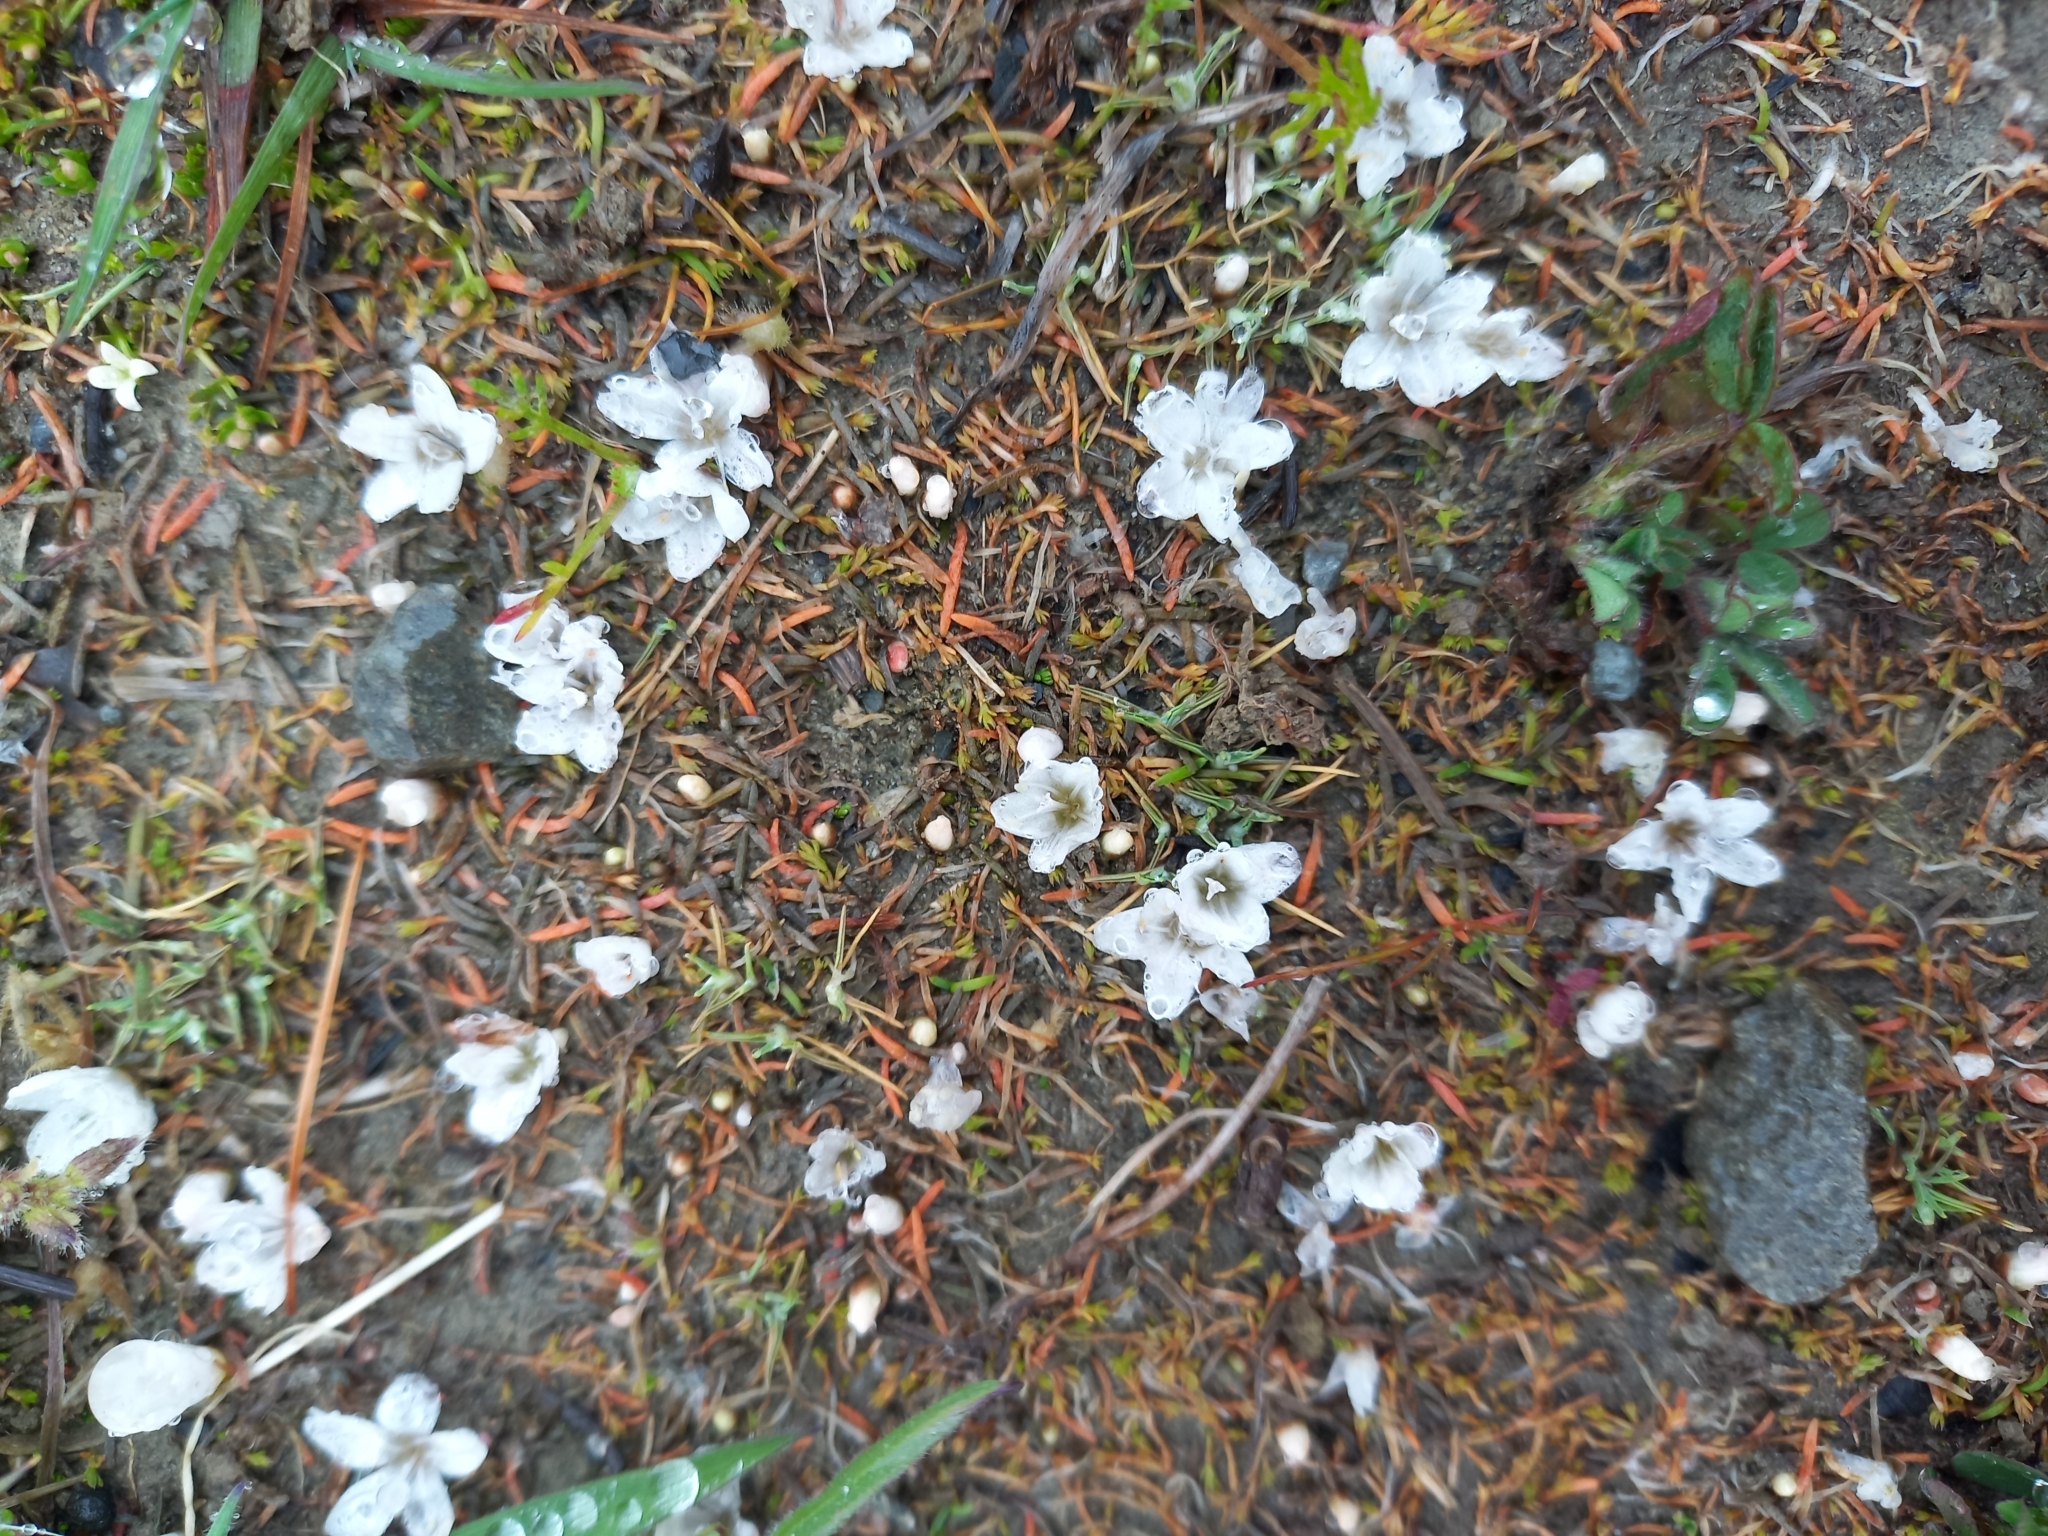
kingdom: Plantae
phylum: Tracheophyta
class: Magnoliopsida
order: Caryophyllales
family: Montiaceae
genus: Montia
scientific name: Montia angustifolia
